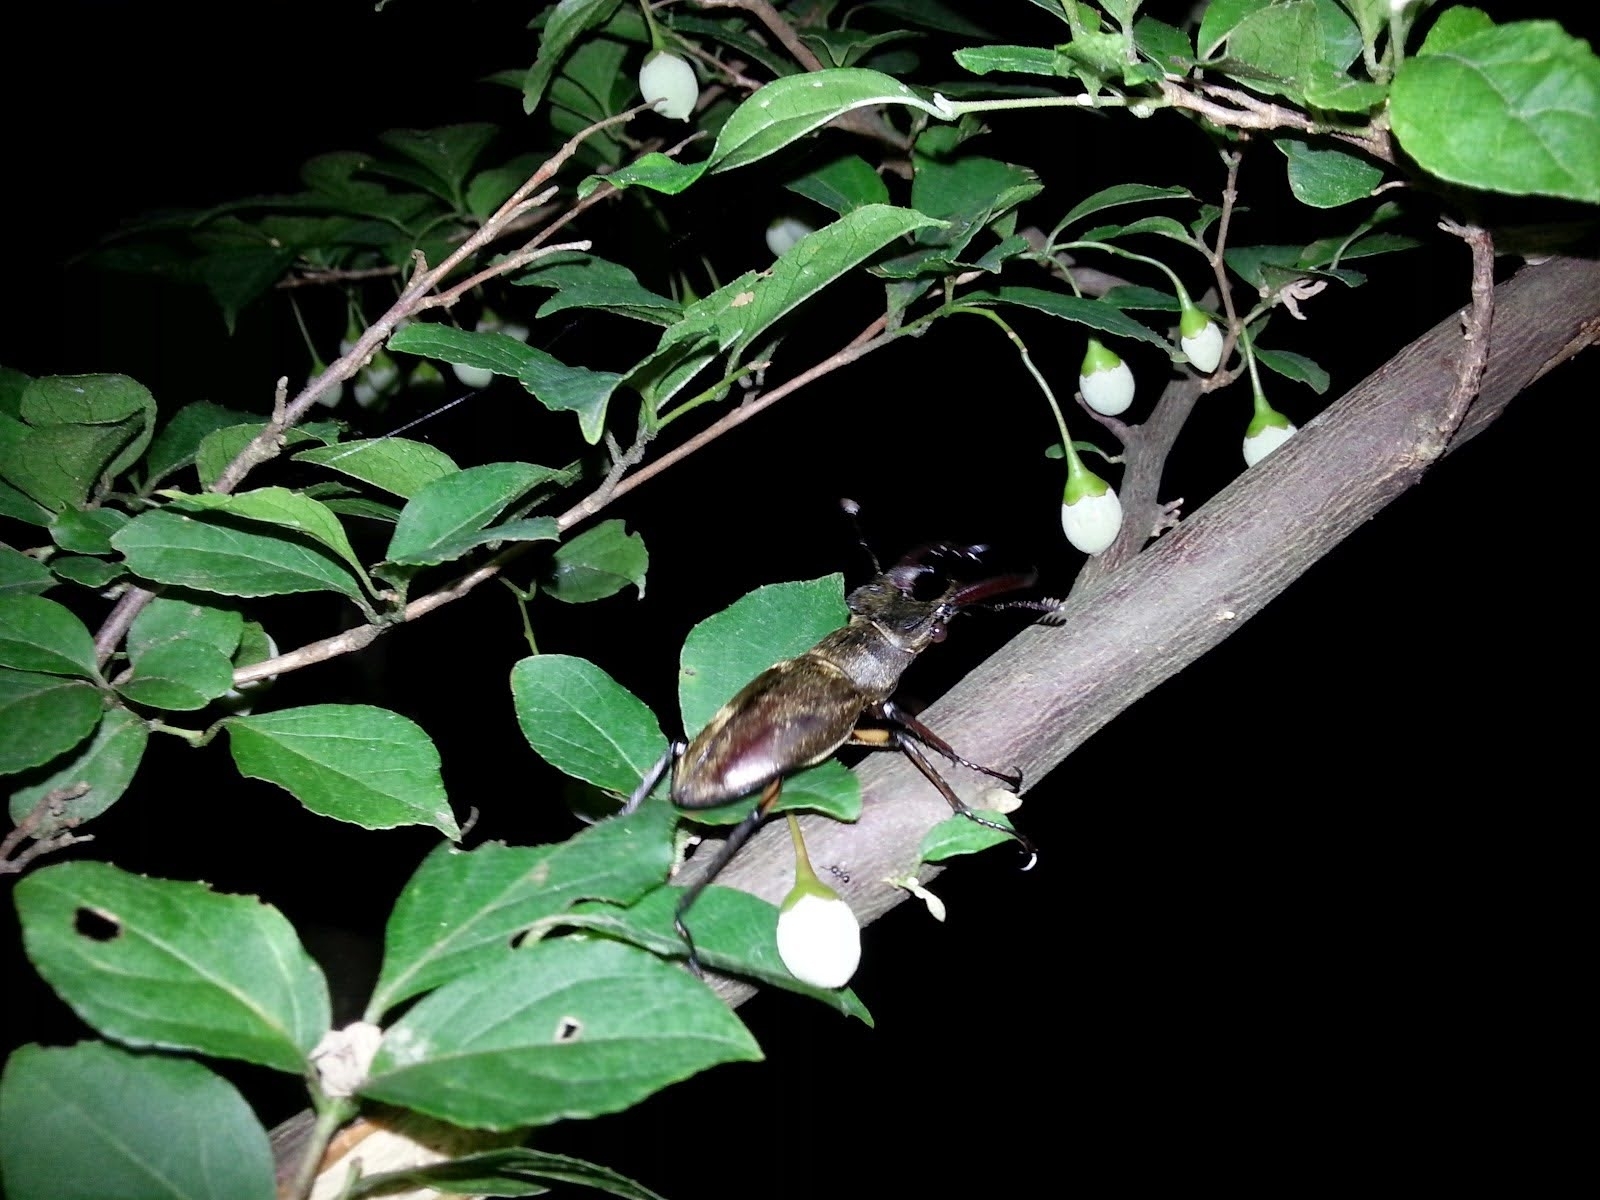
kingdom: Animalia
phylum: Arthropoda
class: Insecta
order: Coleoptera
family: Lucanidae
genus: Lucanus
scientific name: Lucanus maculifemoratus
